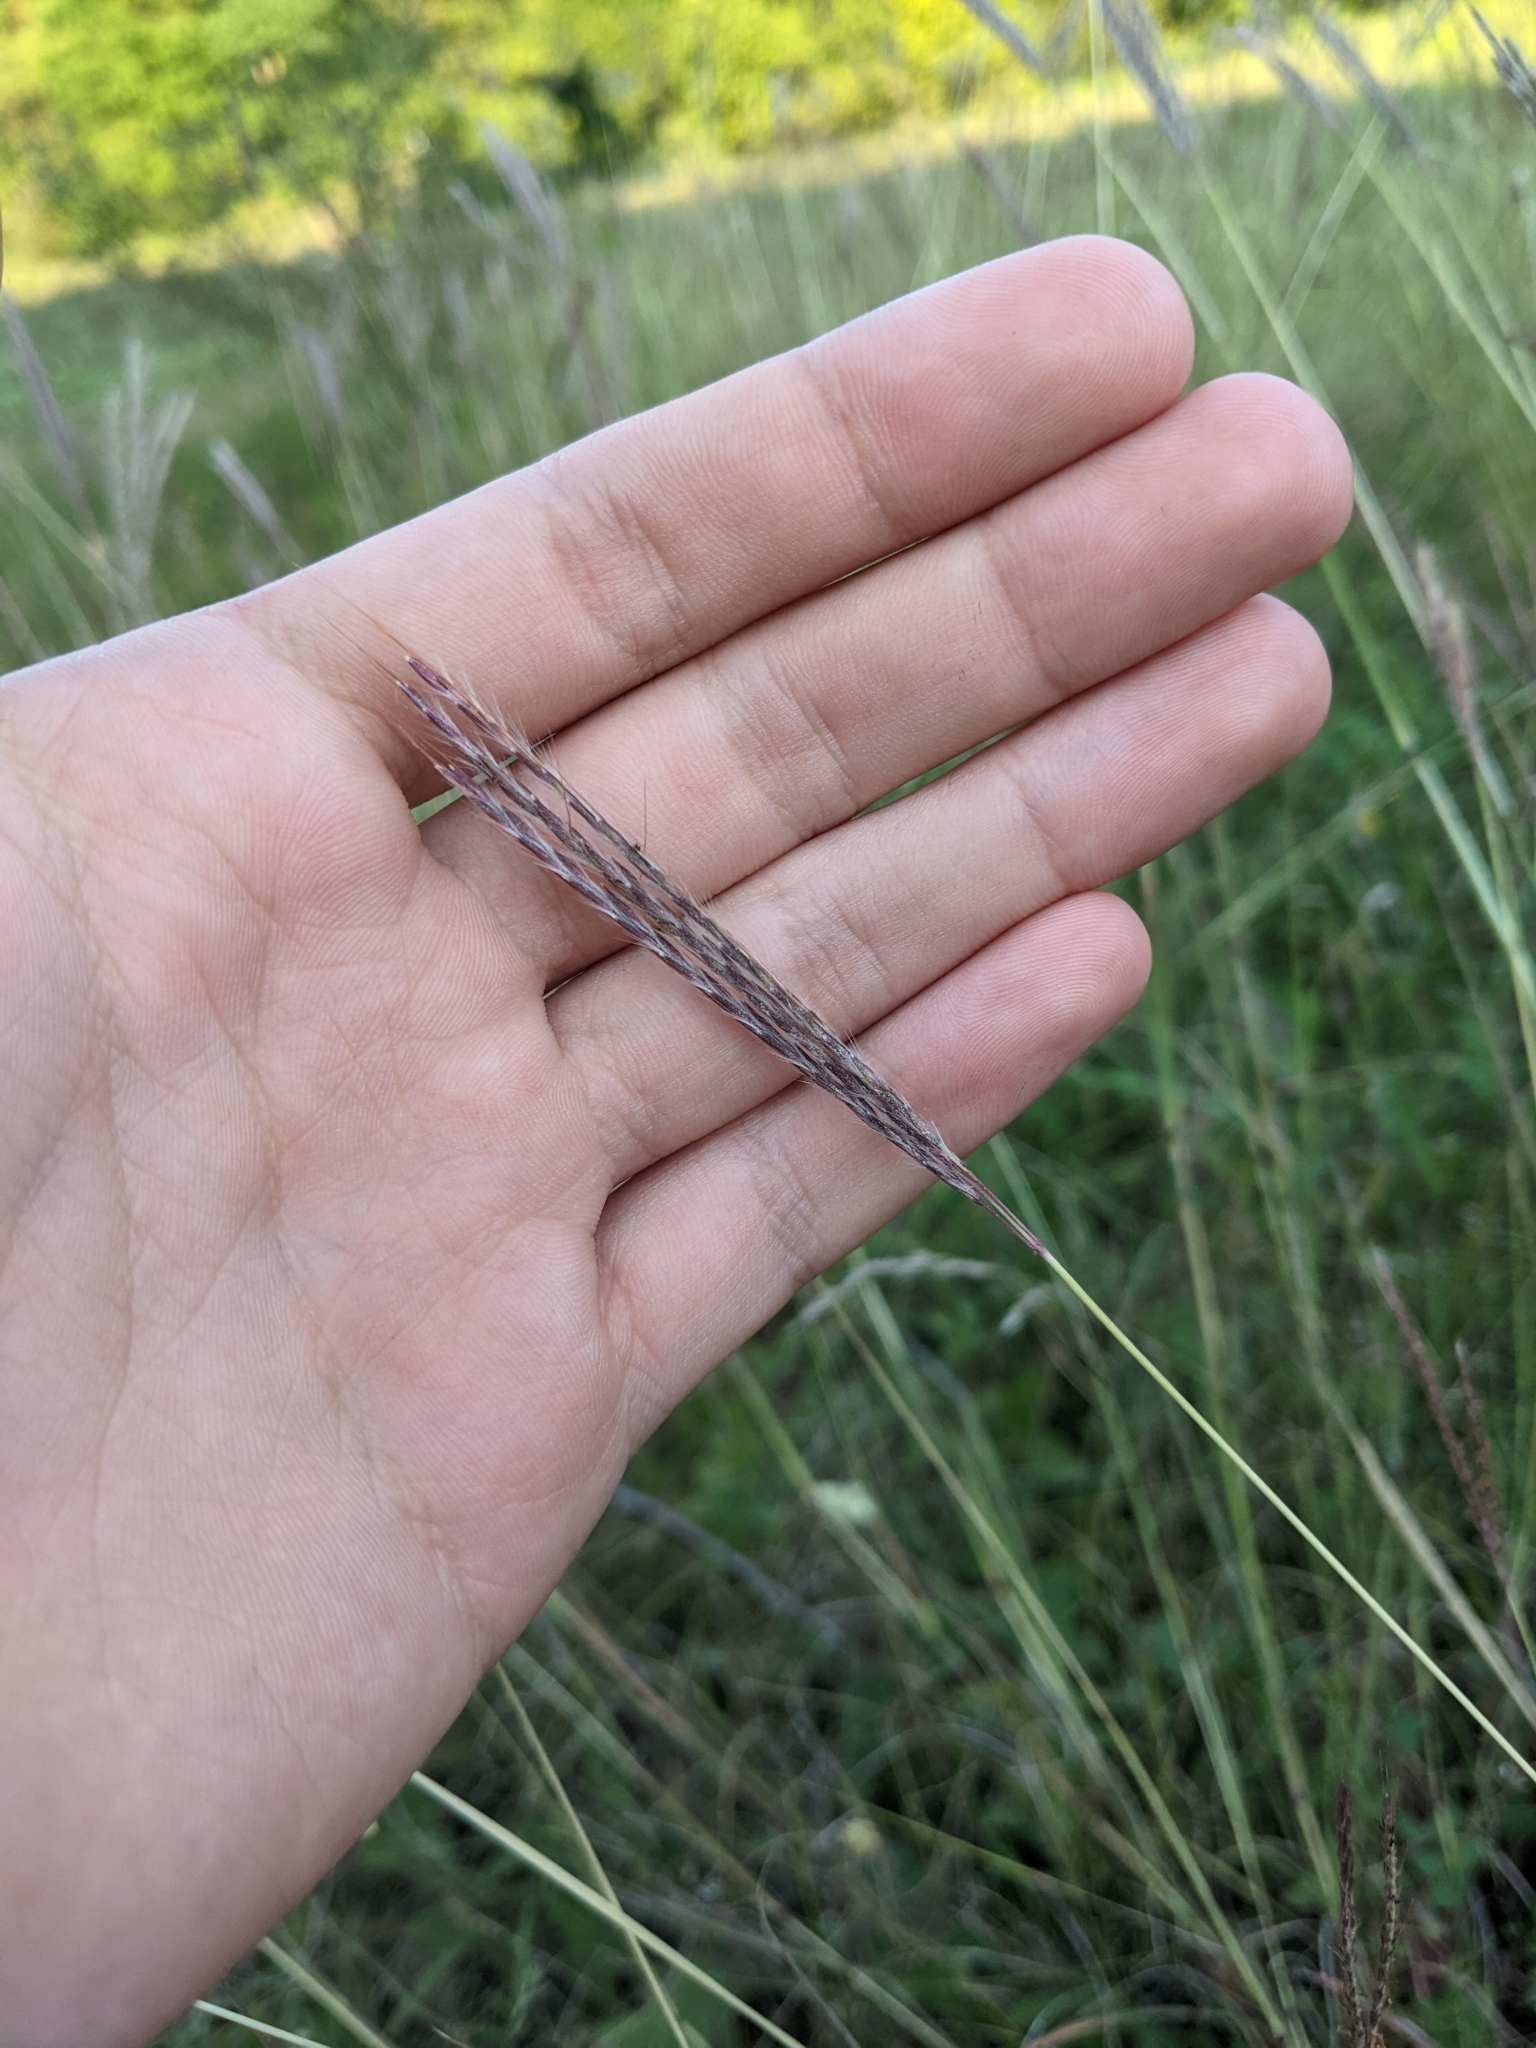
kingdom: Plantae
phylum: Tracheophyta
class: Liliopsida
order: Poales
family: Poaceae
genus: Bothriochloa
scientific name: Bothriochloa ischaemum
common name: Yellow bluestem
